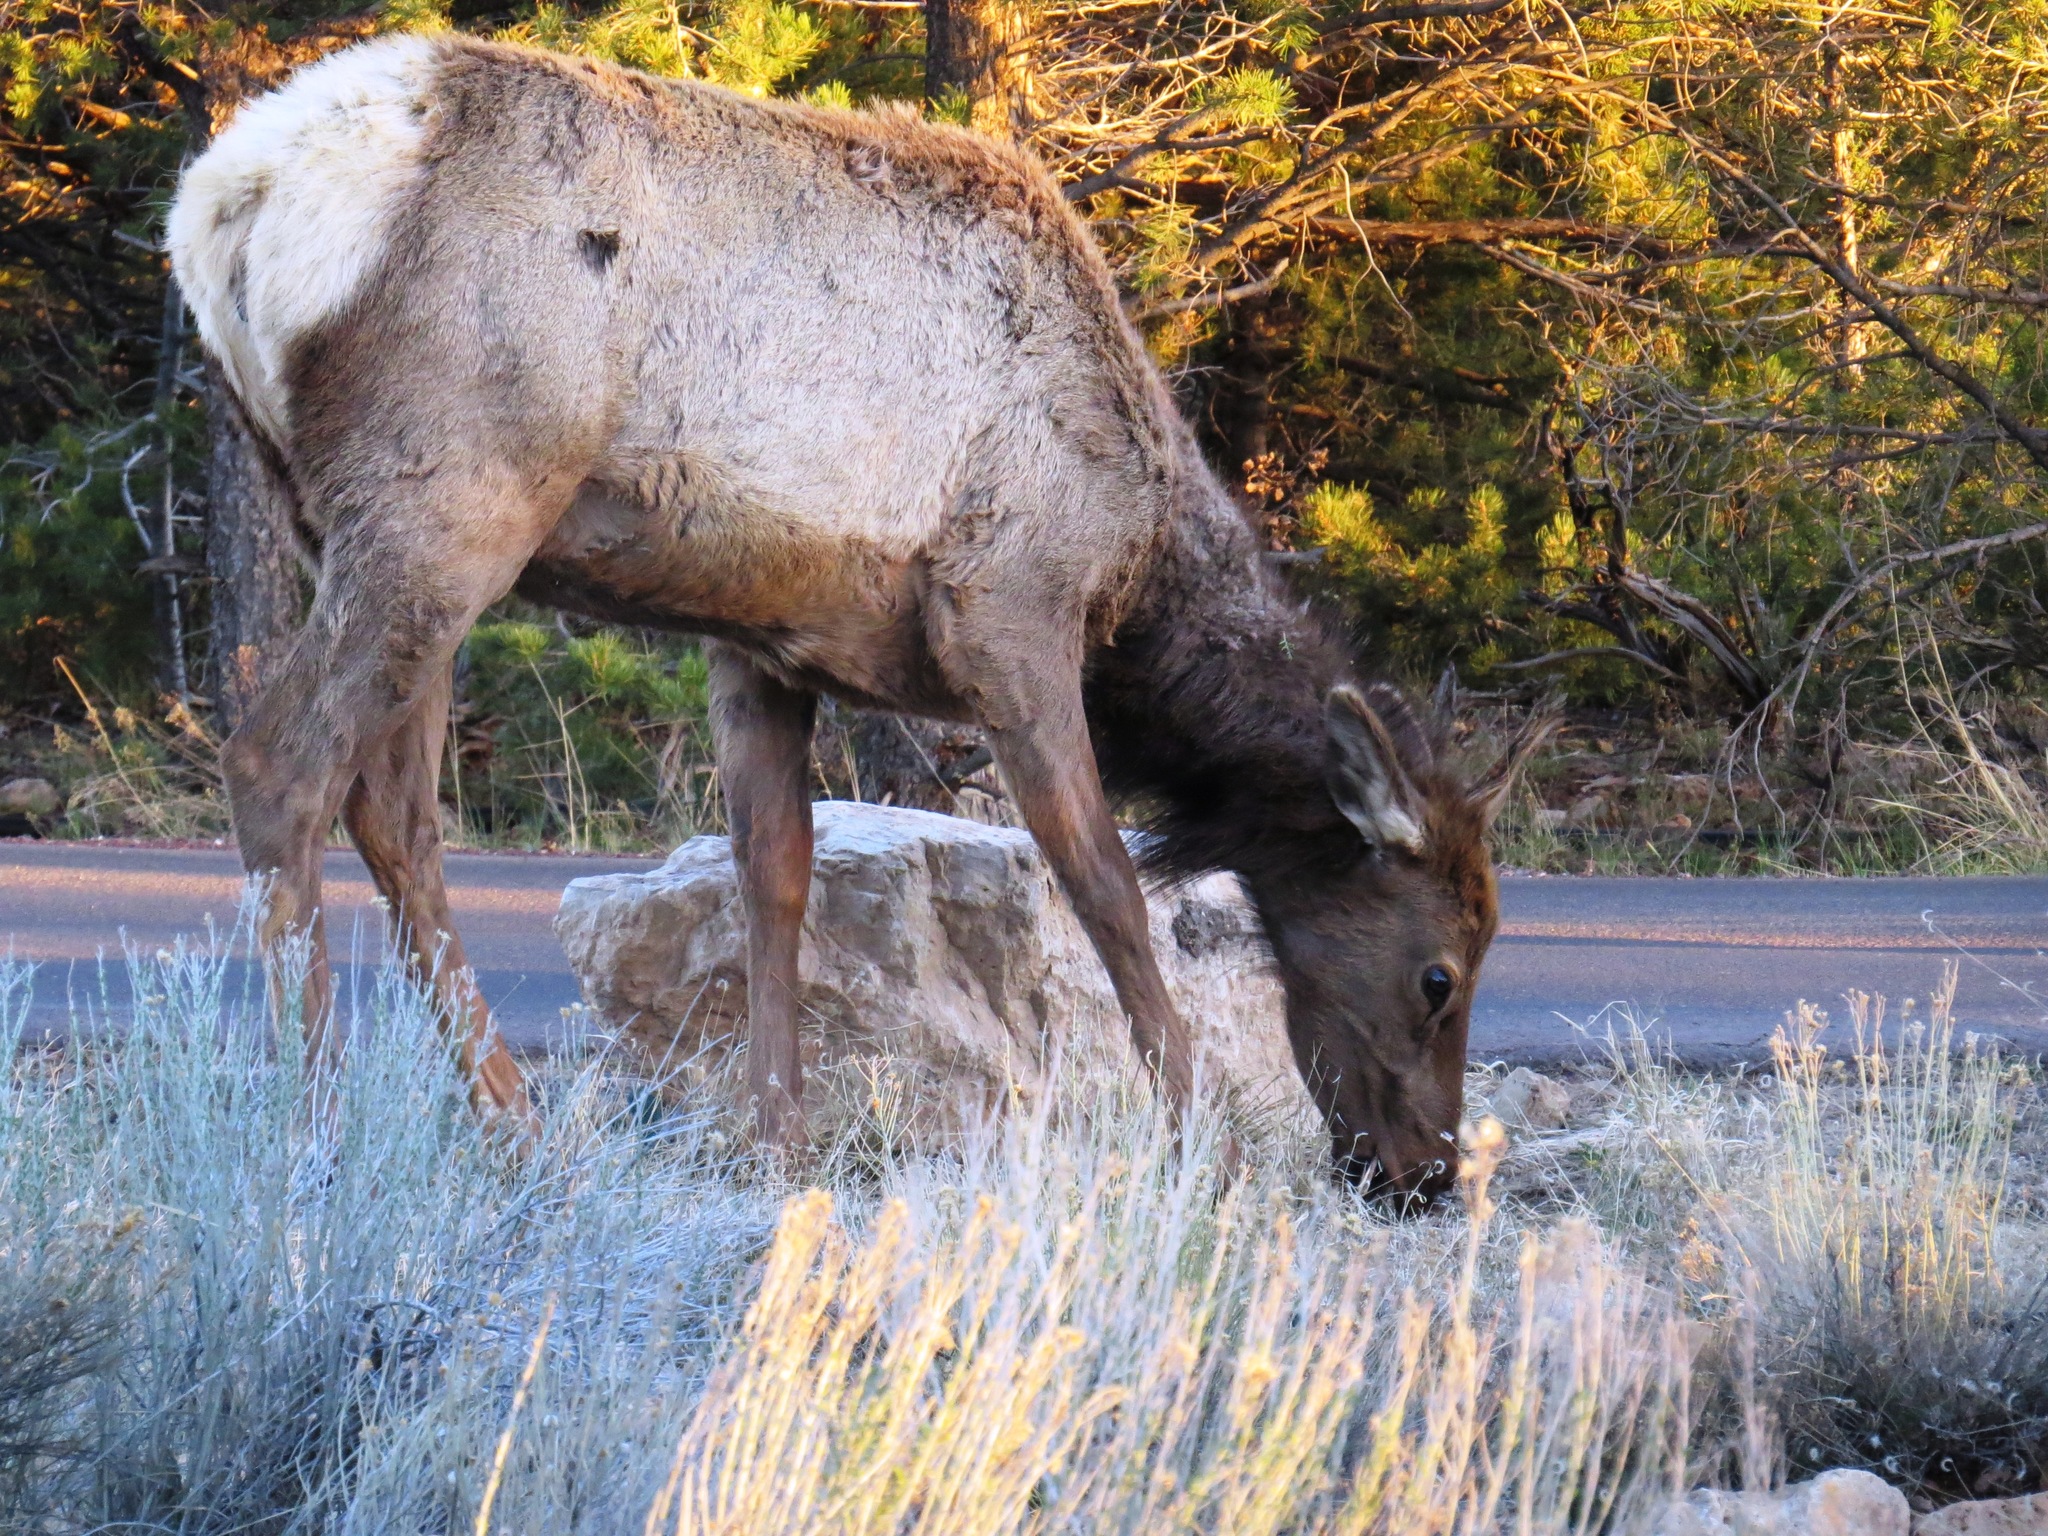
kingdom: Animalia
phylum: Chordata
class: Mammalia
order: Artiodactyla
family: Cervidae
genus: Cervus
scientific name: Cervus elaphus
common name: Red deer
